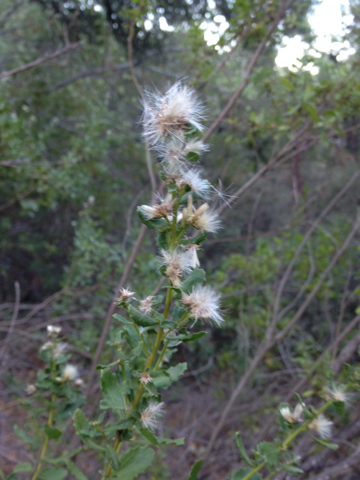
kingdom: Plantae
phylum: Tracheophyta
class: Magnoliopsida
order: Asterales
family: Asteraceae
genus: Baccharis
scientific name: Baccharis pilularis
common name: Coyotebrush
